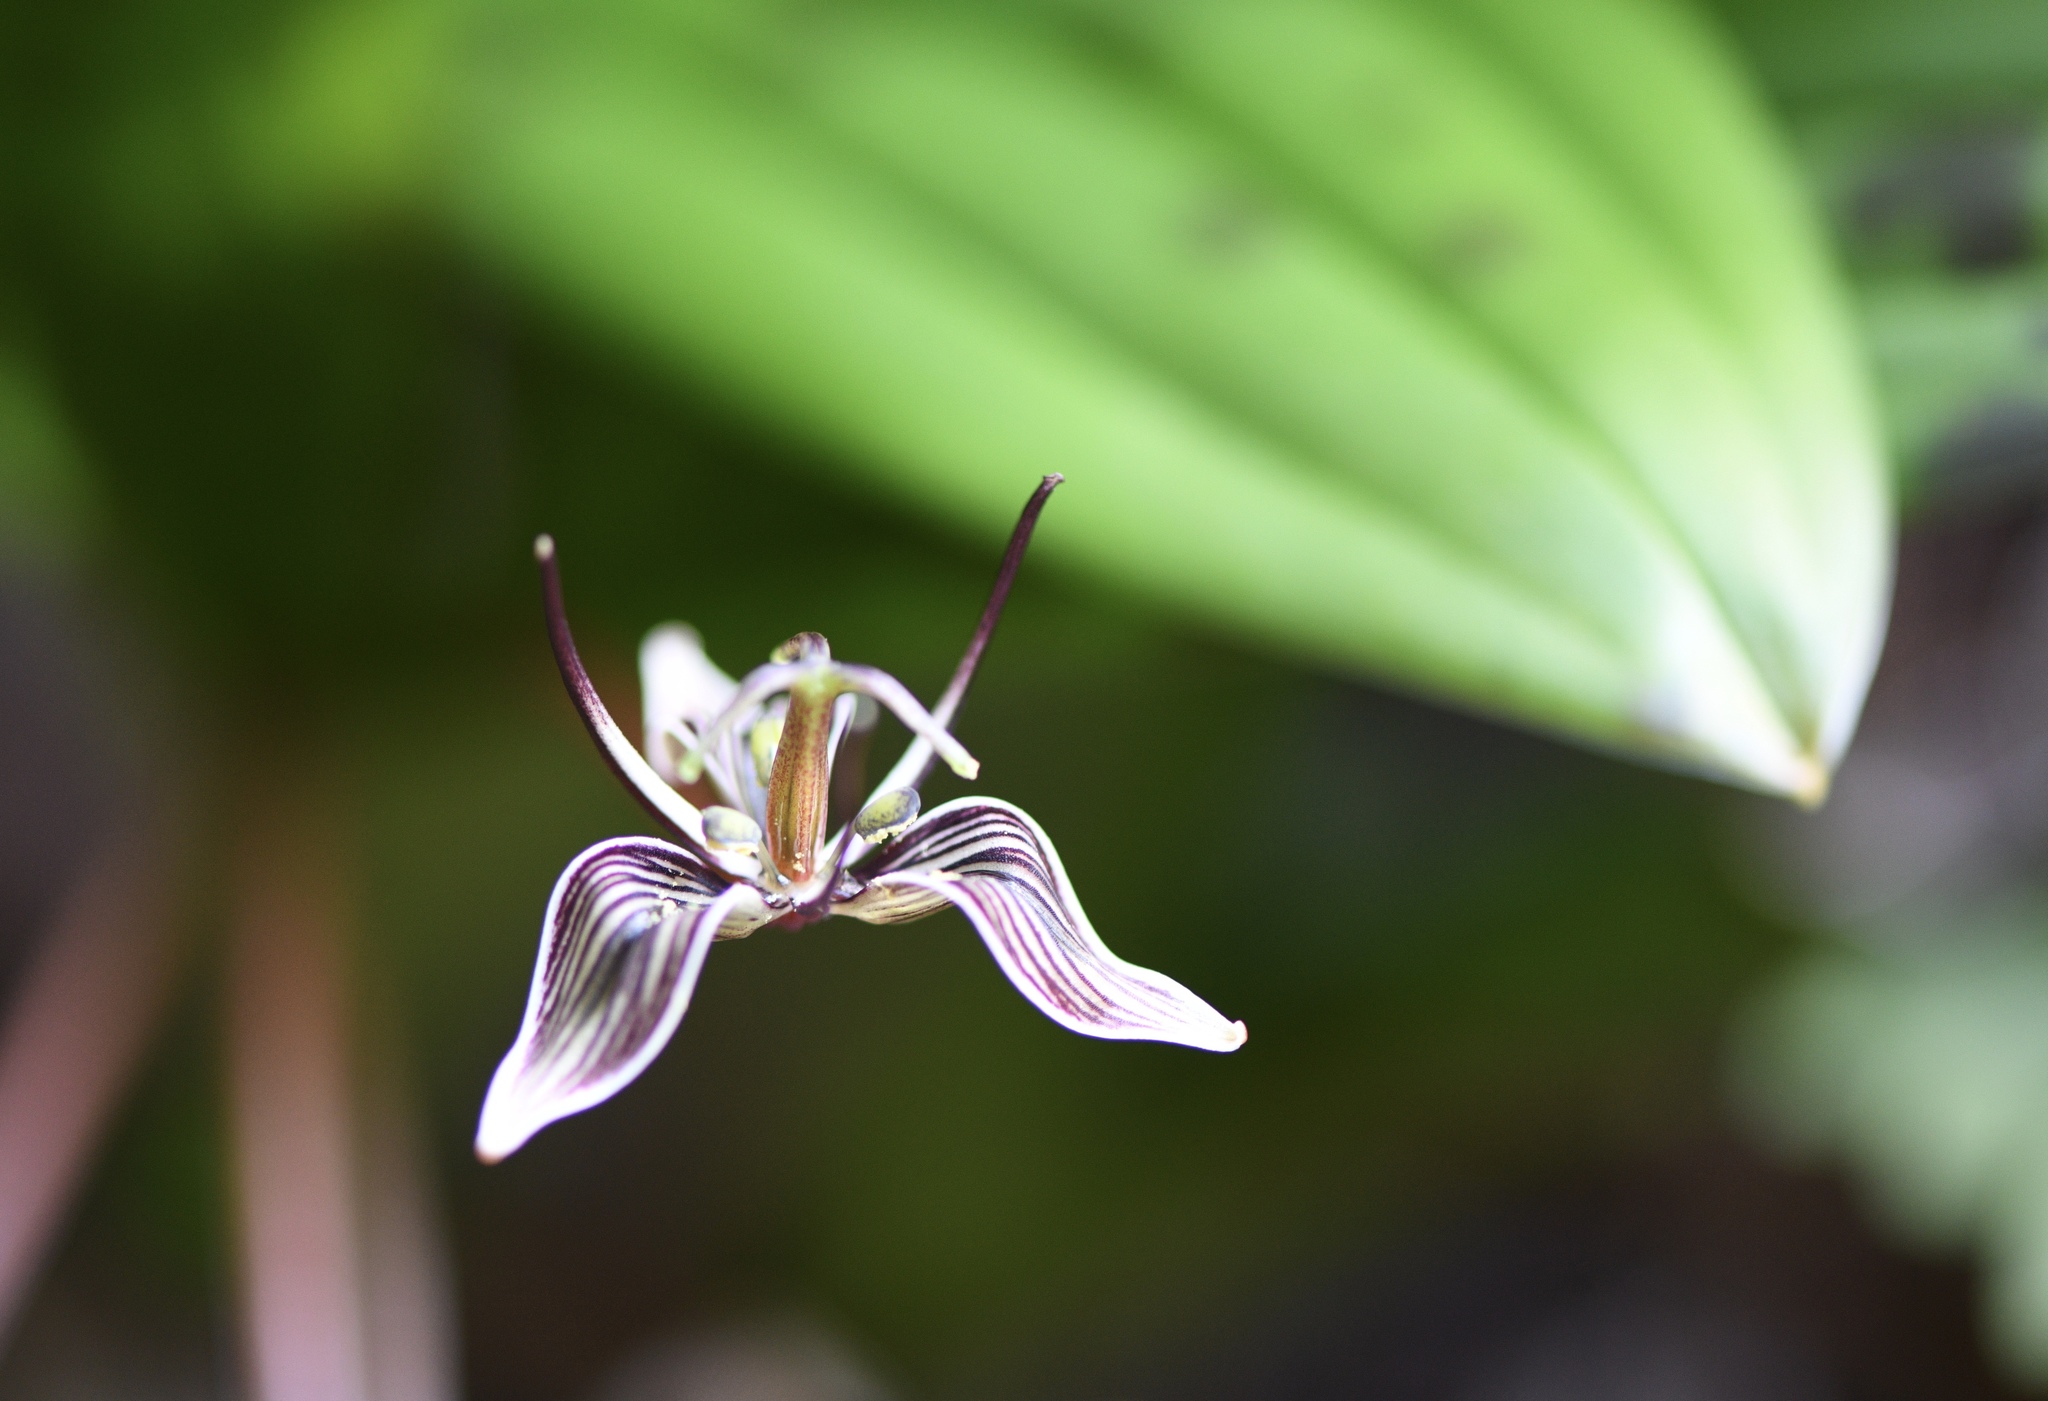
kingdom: Plantae
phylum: Tracheophyta
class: Liliopsida
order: Liliales
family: Liliaceae
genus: Scoliopus
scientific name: Scoliopus bigelovii
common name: Foetid adder's-tongue
